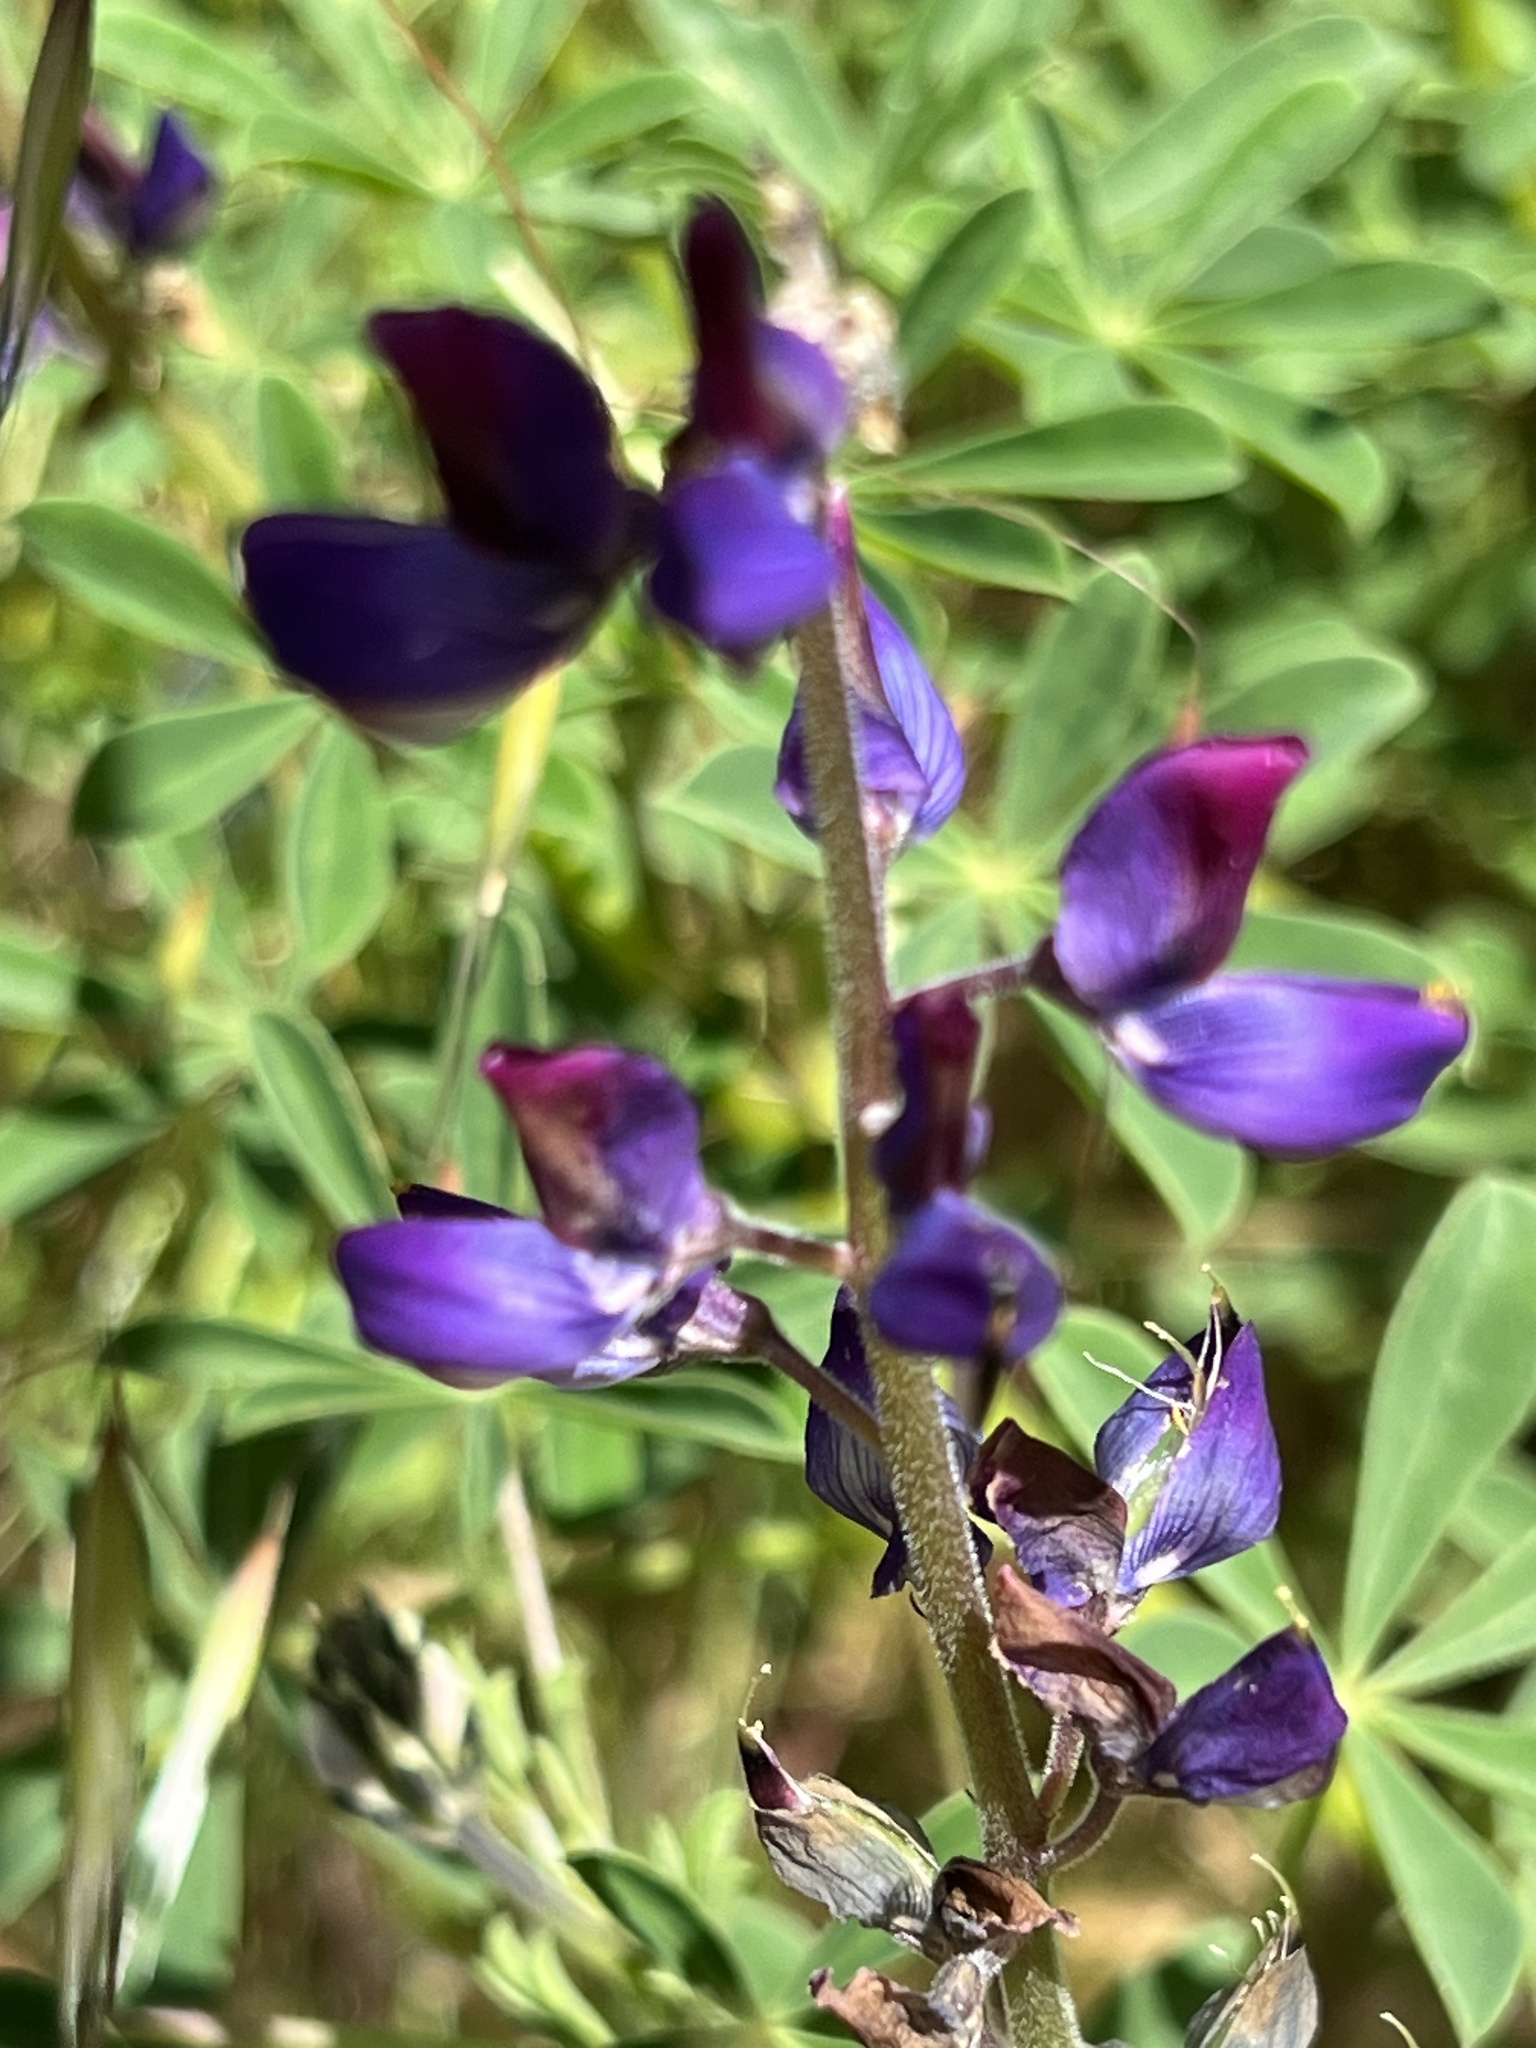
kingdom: Plantae
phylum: Tracheophyta
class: Magnoliopsida
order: Fabales
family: Fabaceae
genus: Lupinus
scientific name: Lupinus succulentus
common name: Arroyo lupine
